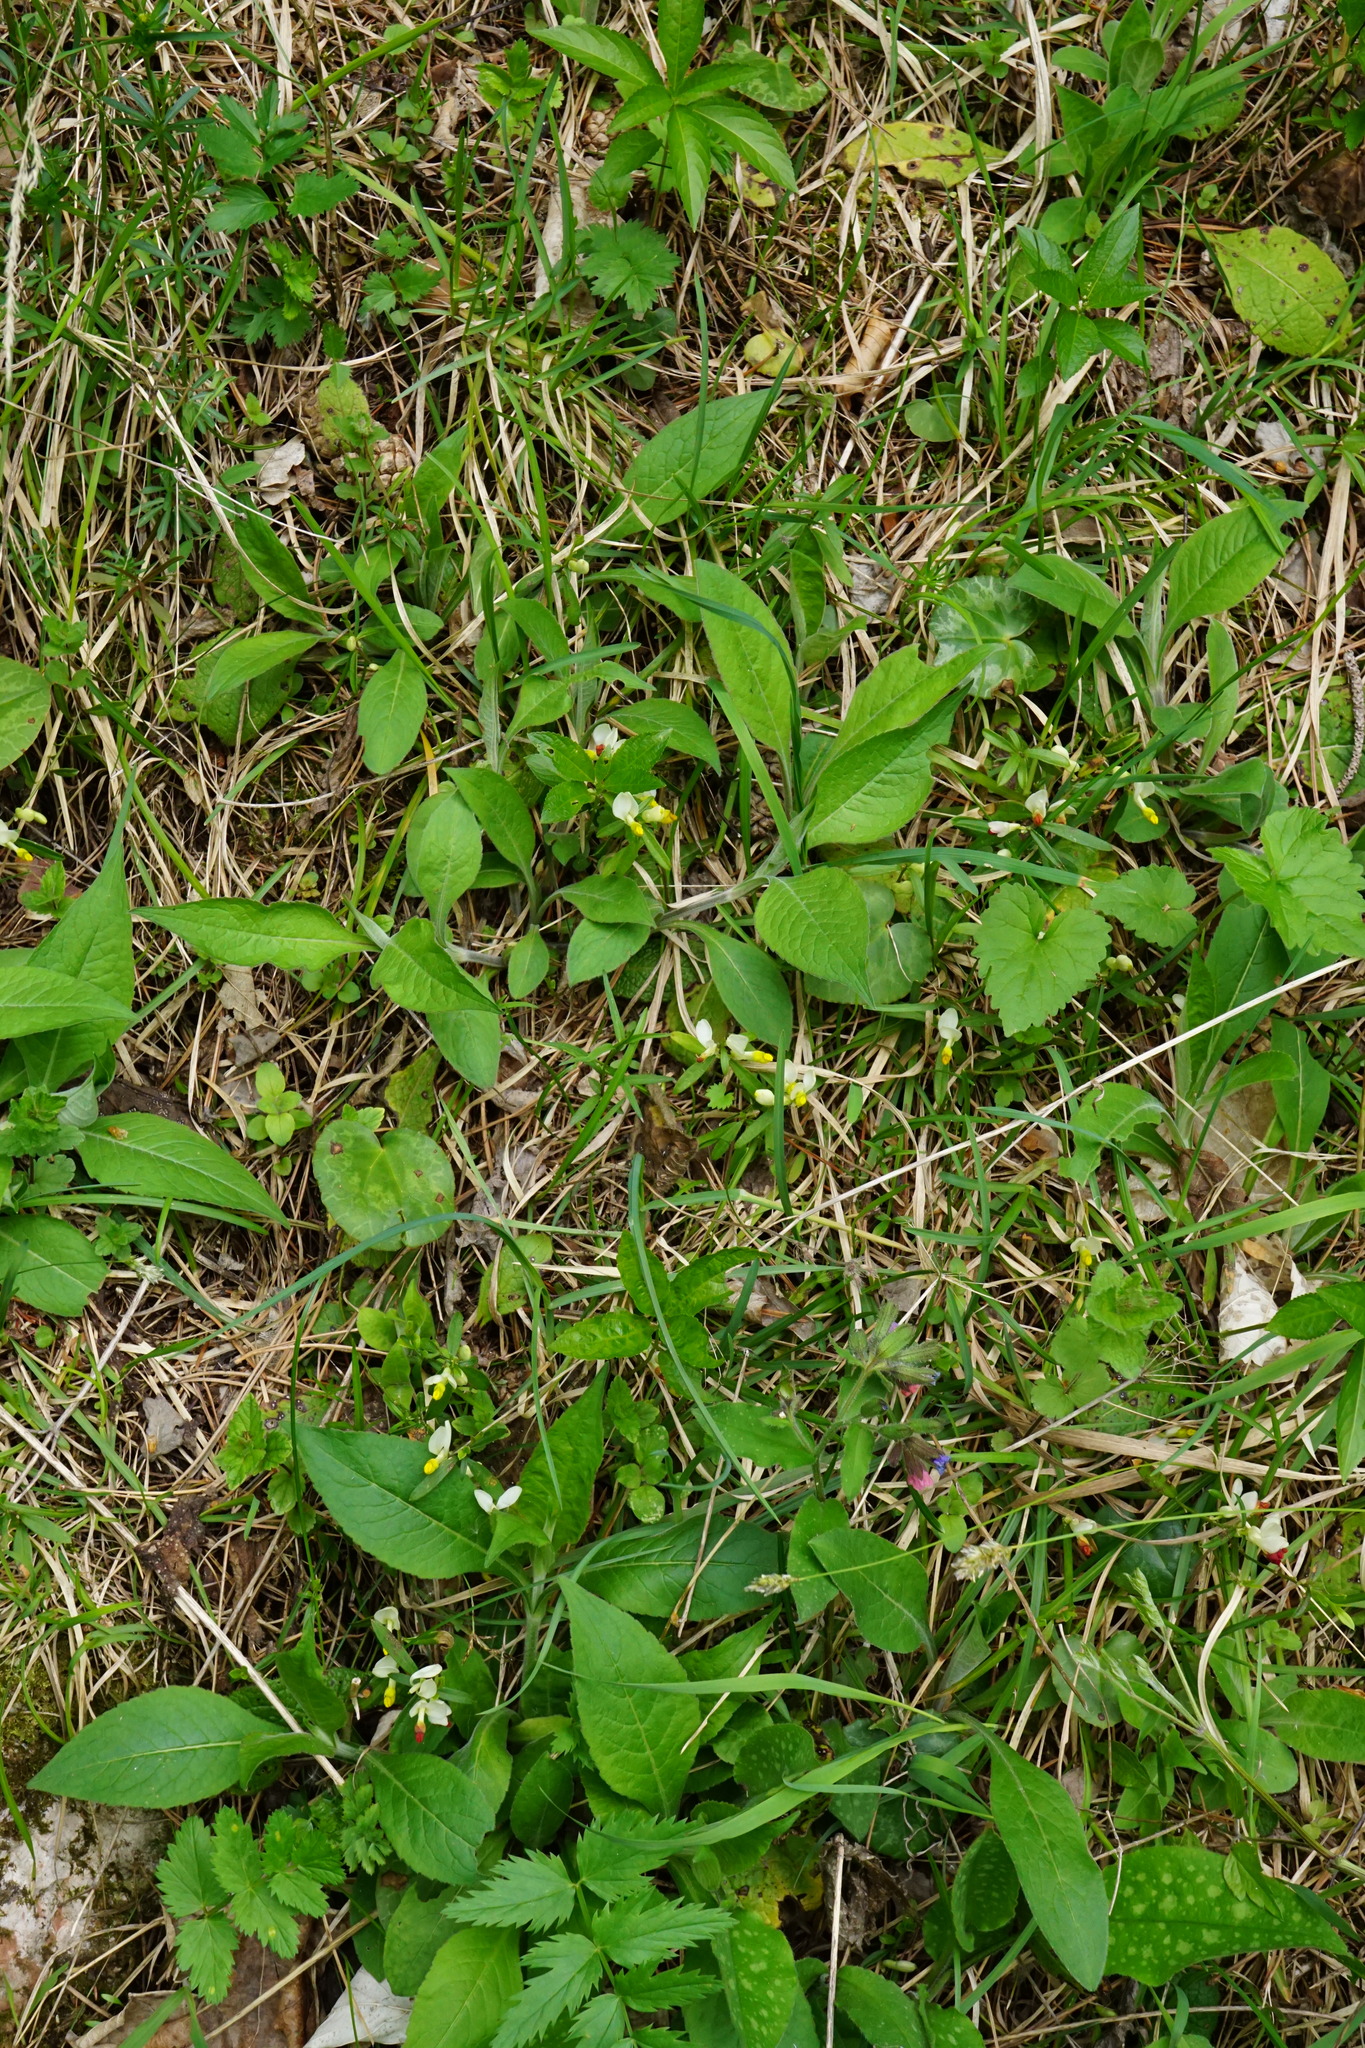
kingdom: Plantae
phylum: Tracheophyta
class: Magnoliopsida
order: Fabales
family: Polygalaceae
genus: Polygaloides
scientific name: Polygaloides chamaebuxus
